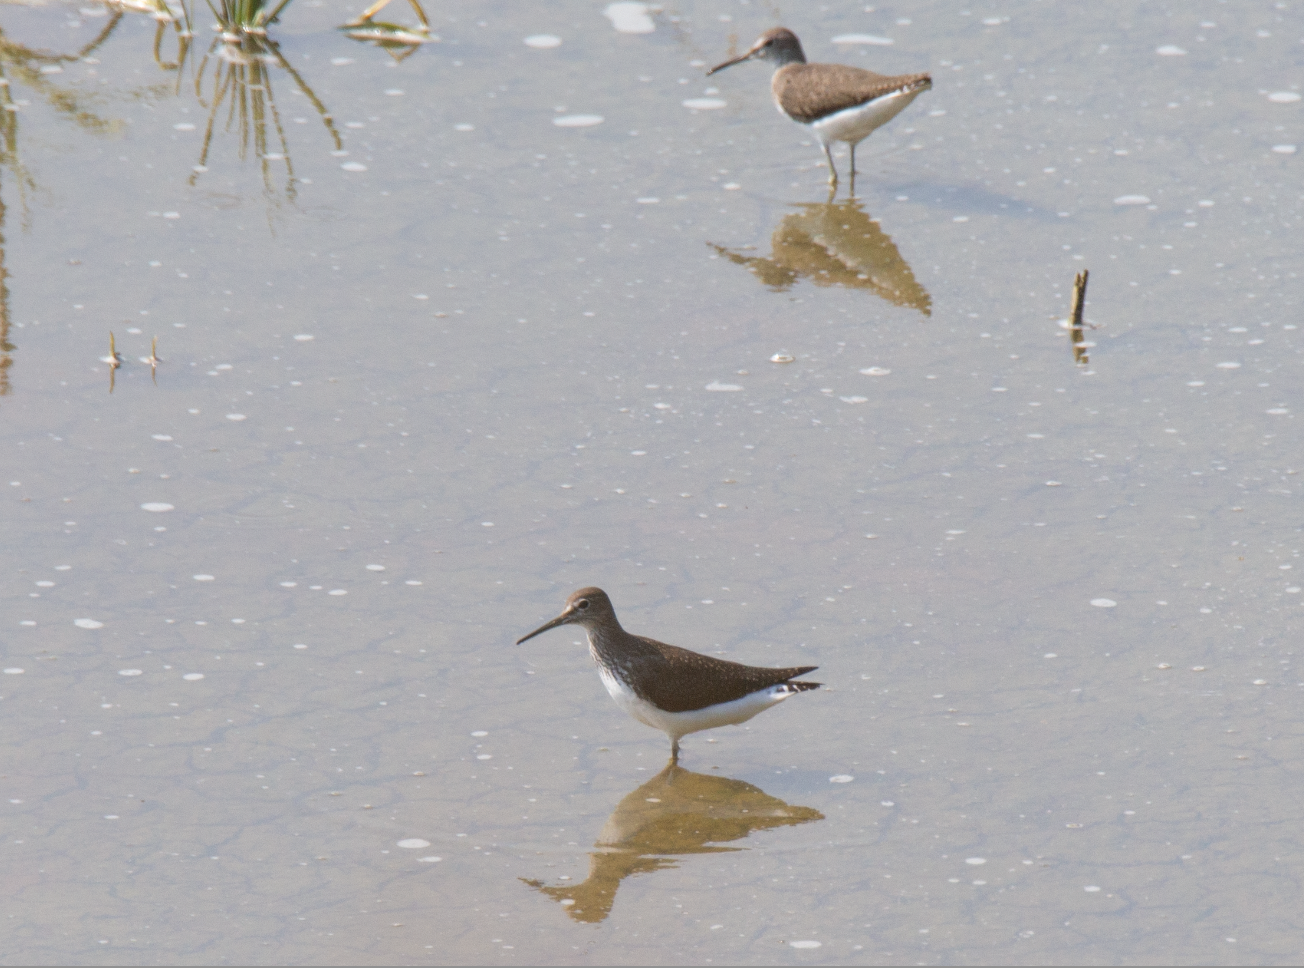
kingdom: Animalia
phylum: Chordata
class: Aves
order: Charadriiformes
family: Scolopacidae
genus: Tringa
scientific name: Tringa ochropus
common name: Green sandpiper
